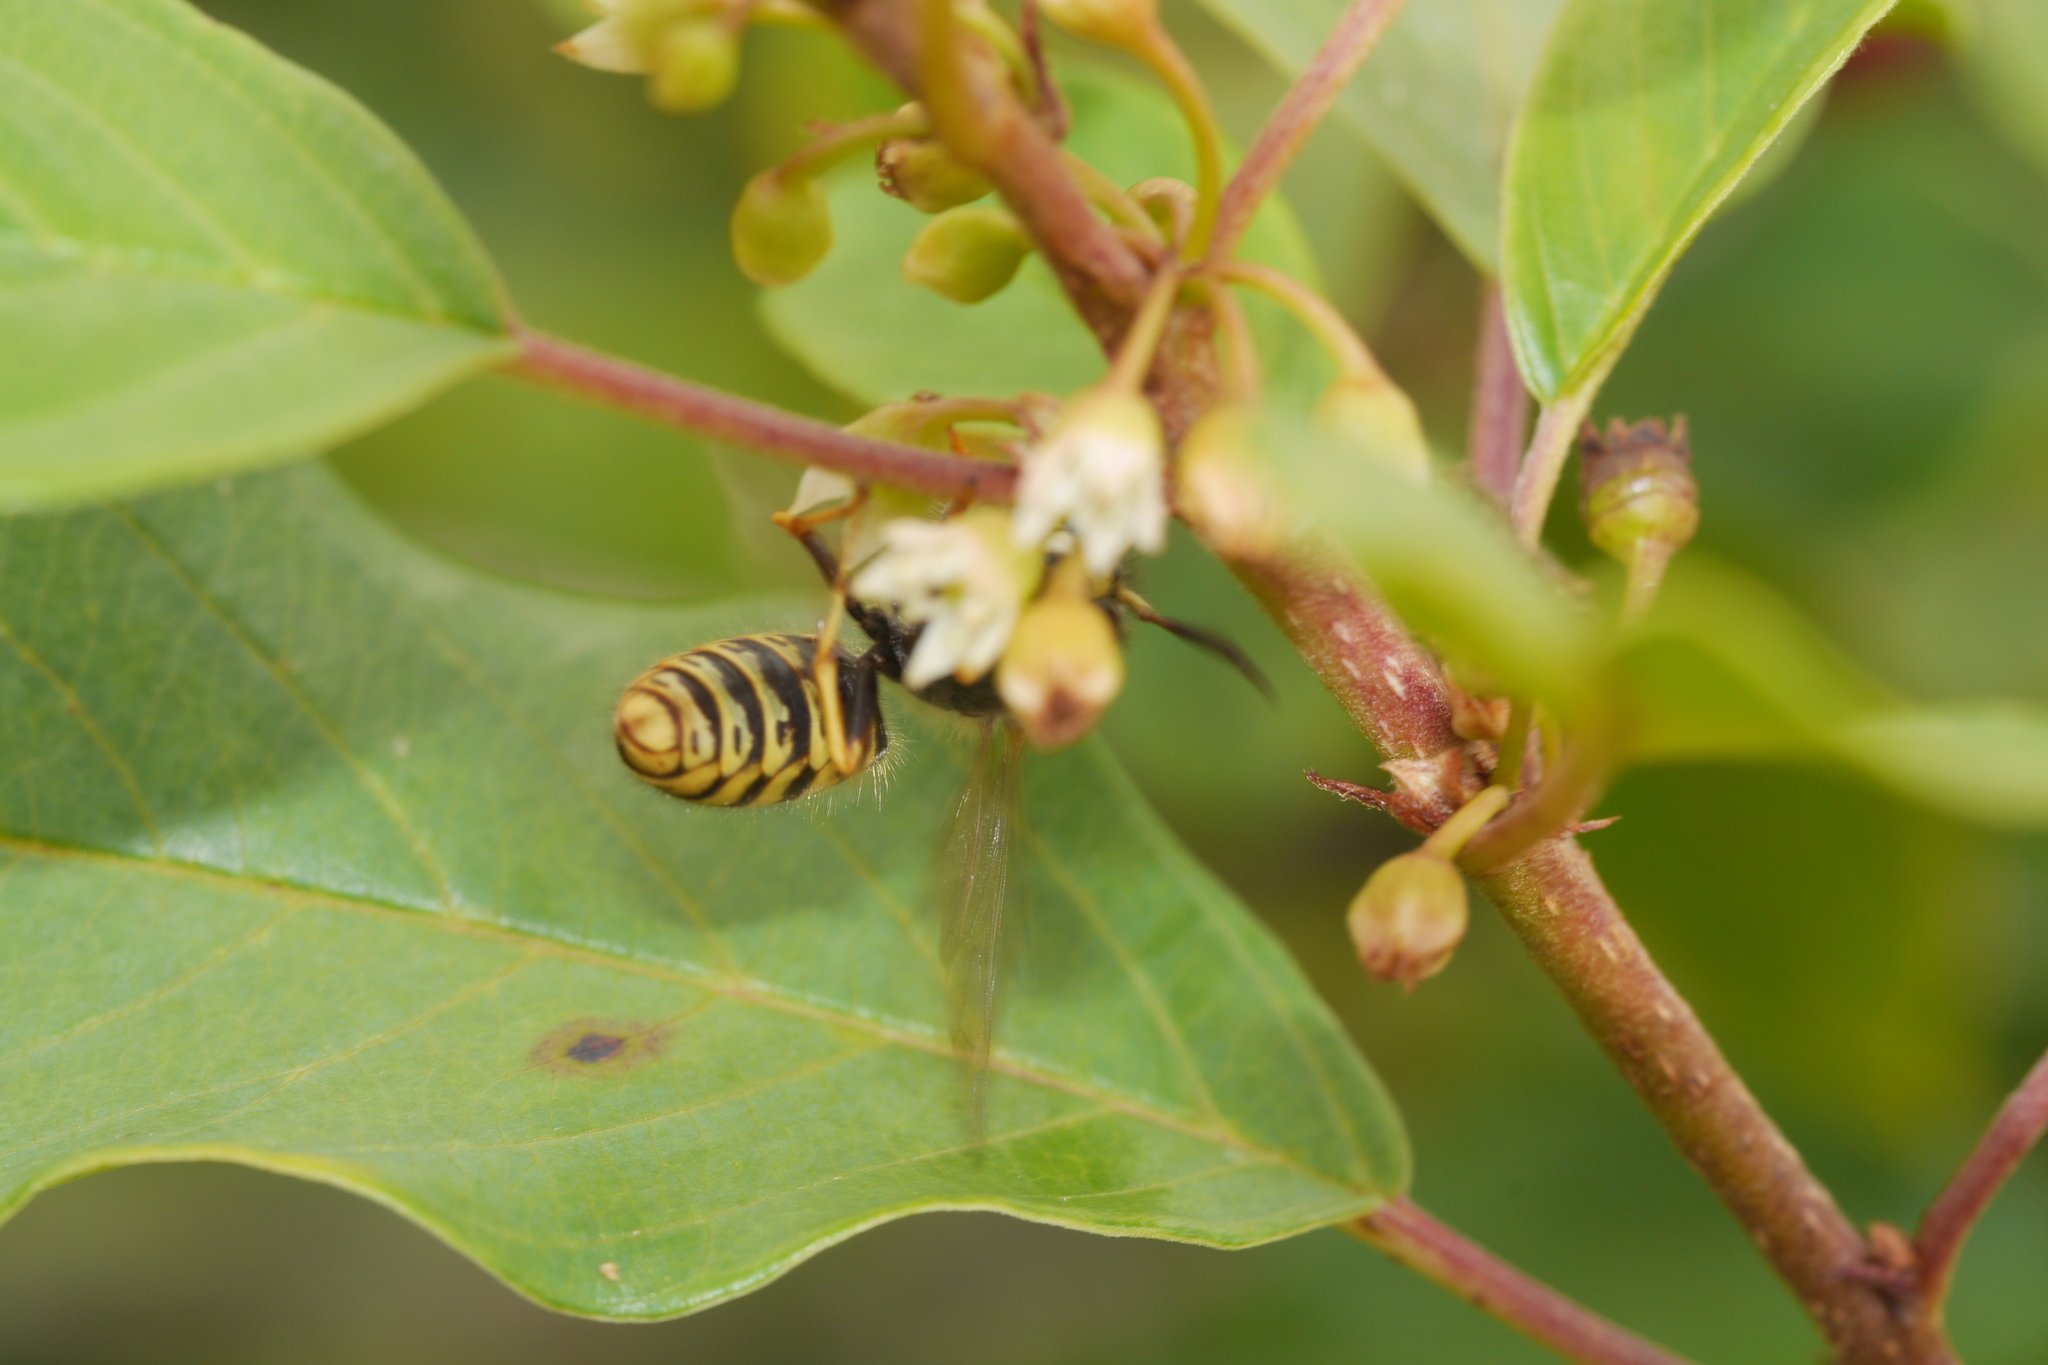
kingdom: Animalia
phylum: Arthropoda
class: Insecta
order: Hymenoptera
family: Vespidae
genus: Dolichovespula
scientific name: Dolichovespula saxonica
